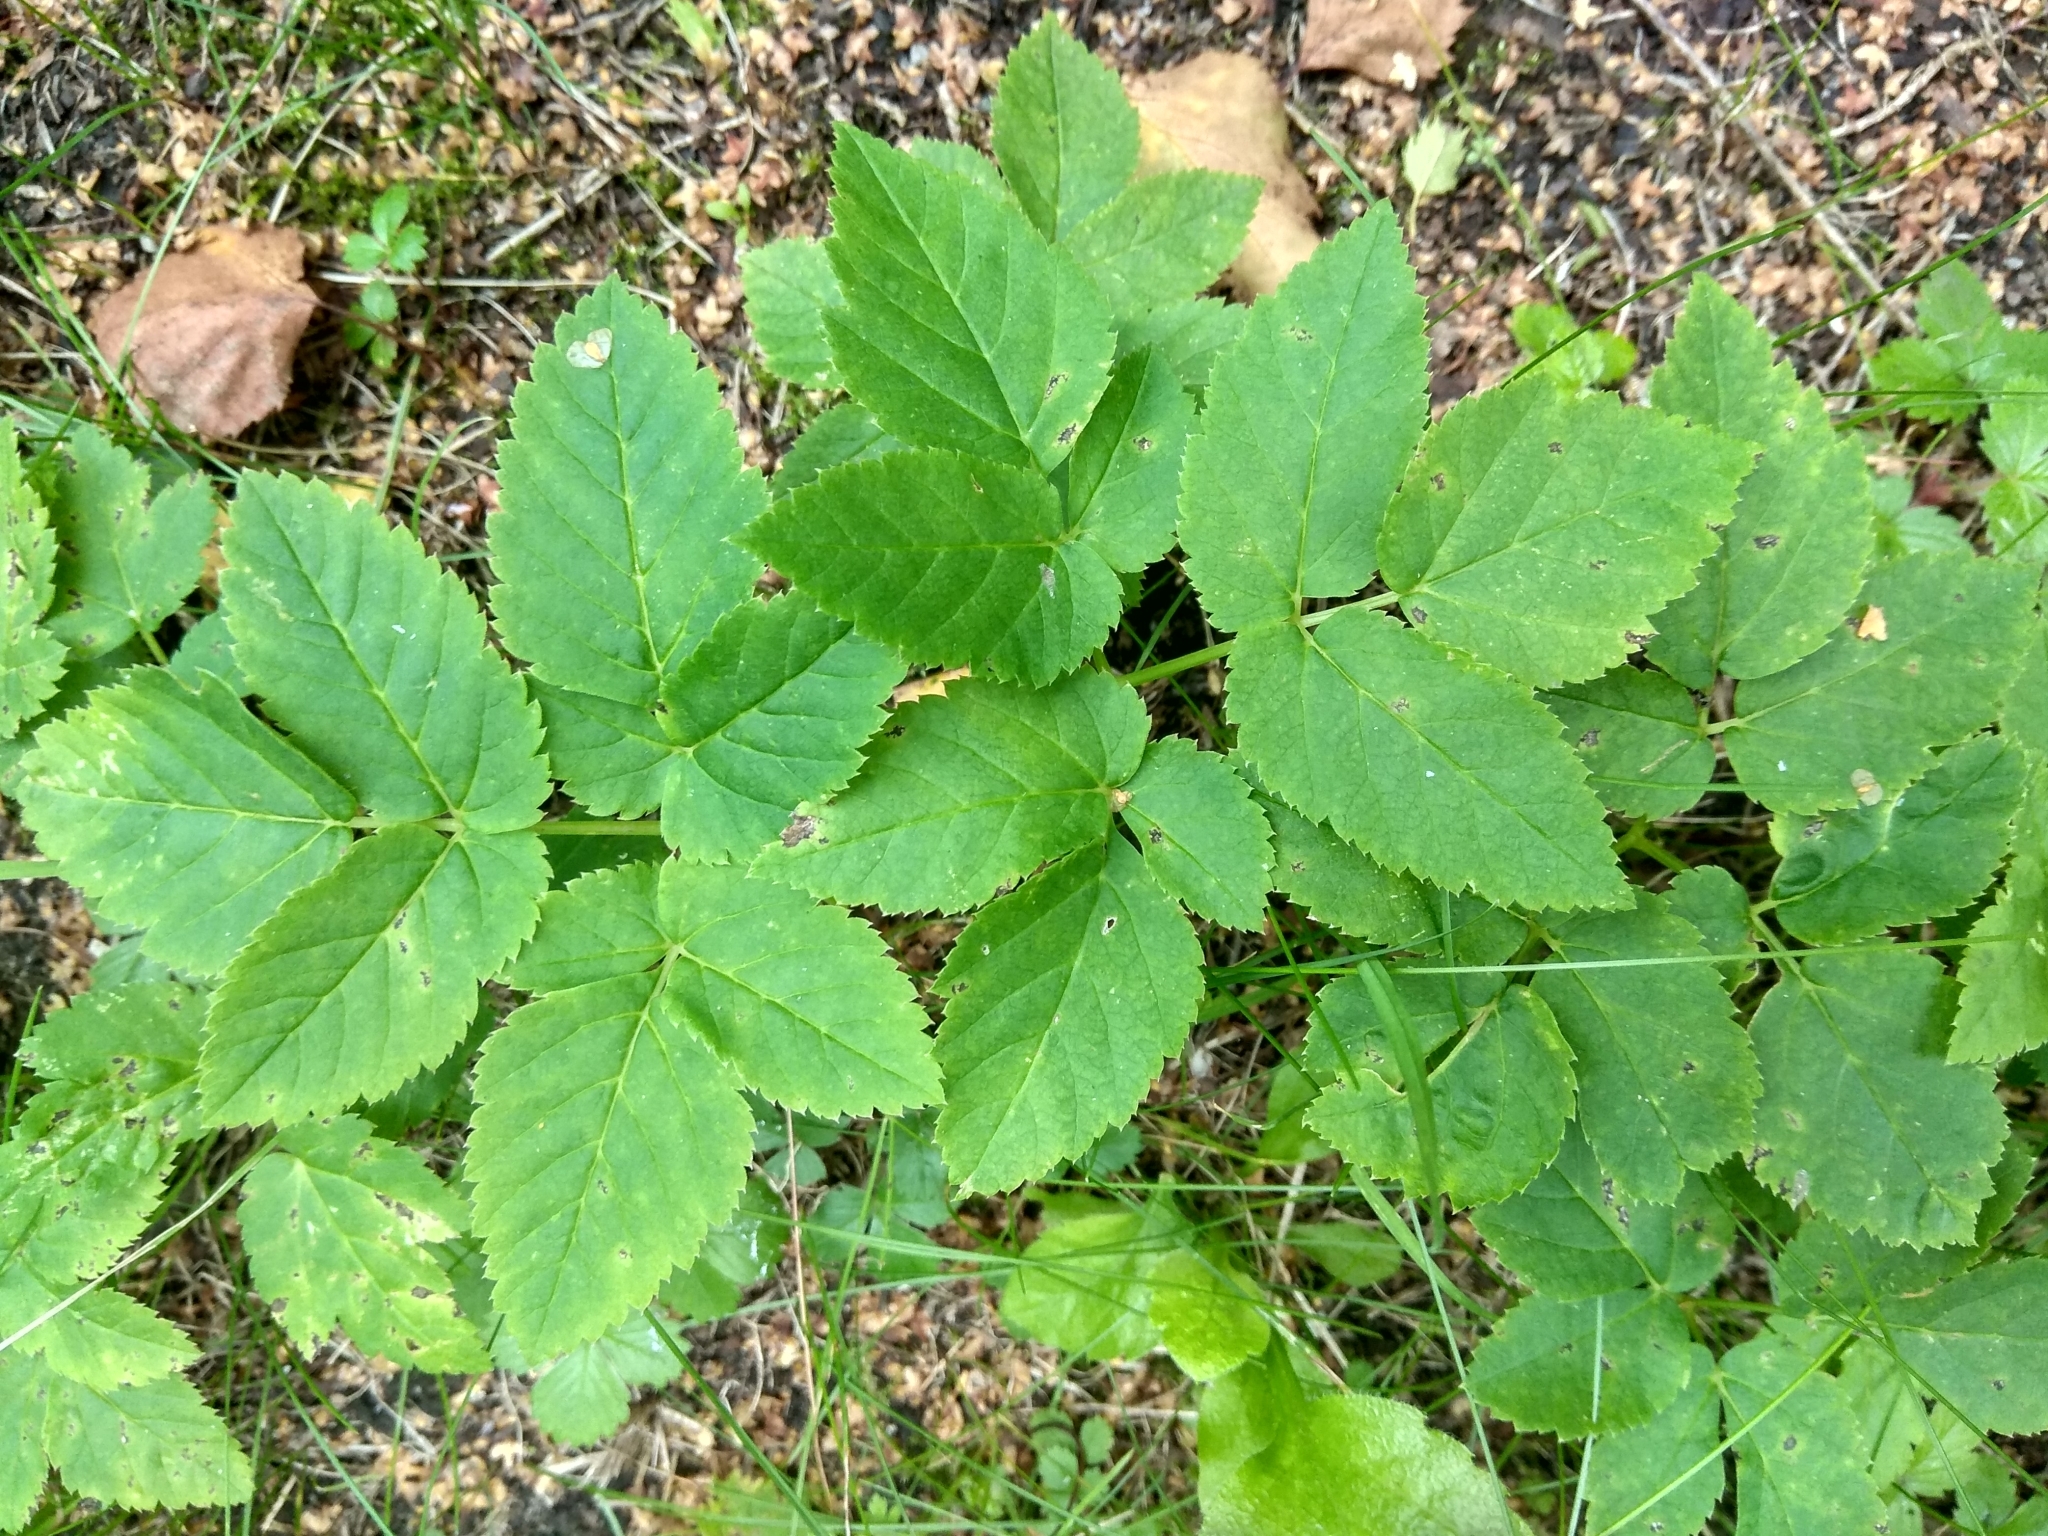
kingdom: Plantae
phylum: Tracheophyta
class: Magnoliopsida
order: Apiales
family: Apiaceae
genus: Aegopodium
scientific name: Aegopodium podagraria
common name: Ground-elder
